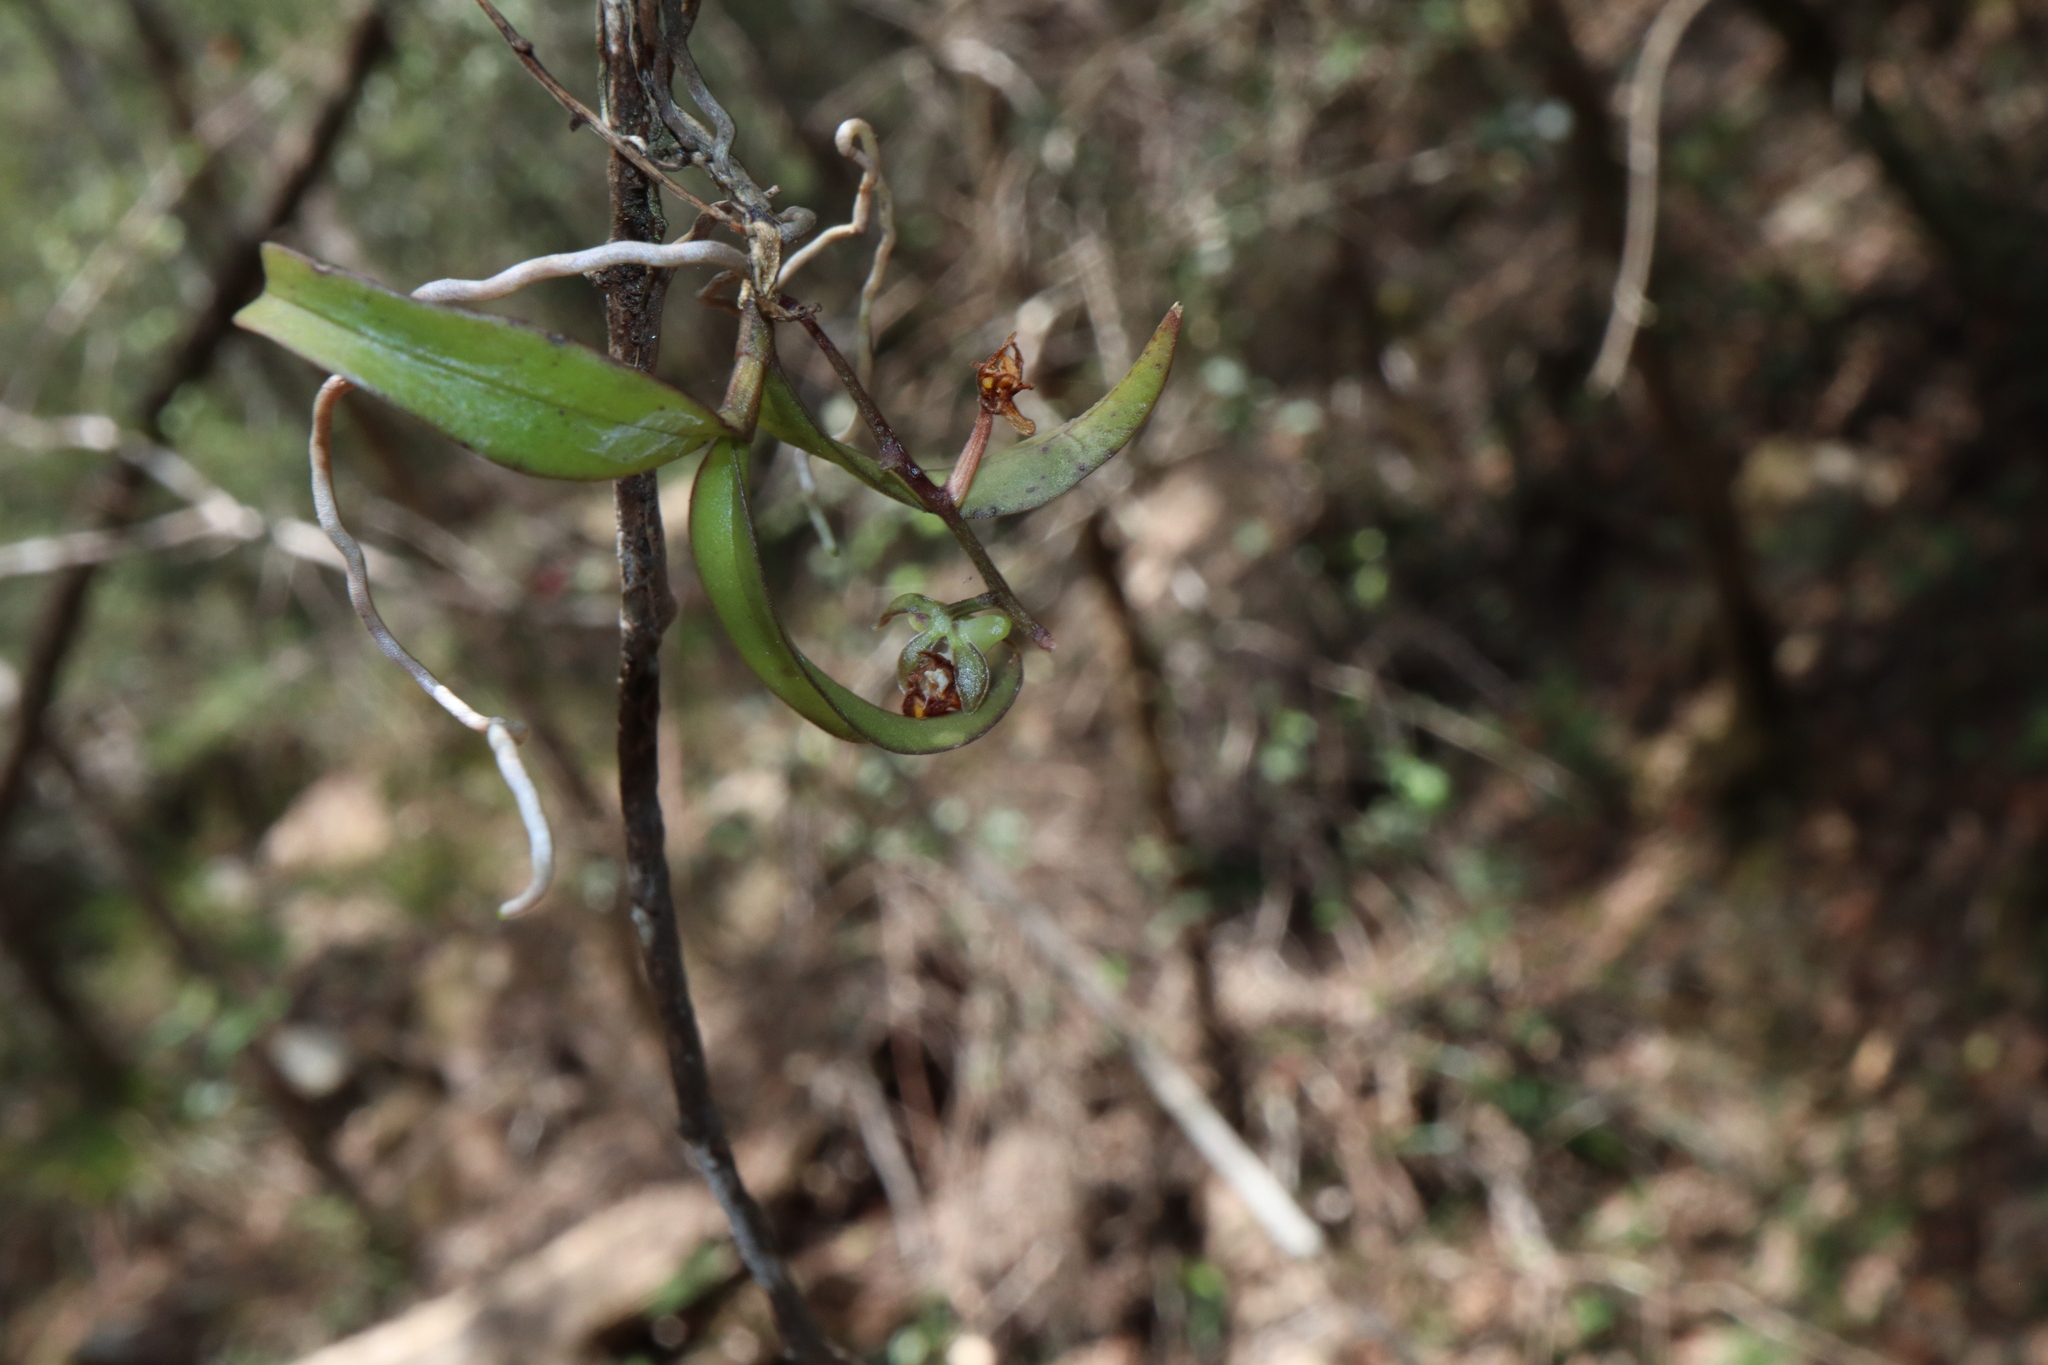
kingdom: Plantae
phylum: Tracheophyta
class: Liliopsida
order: Asparagales
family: Orchidaceae
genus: Plectorrhiza
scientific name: Plectorrhiza tridentata
